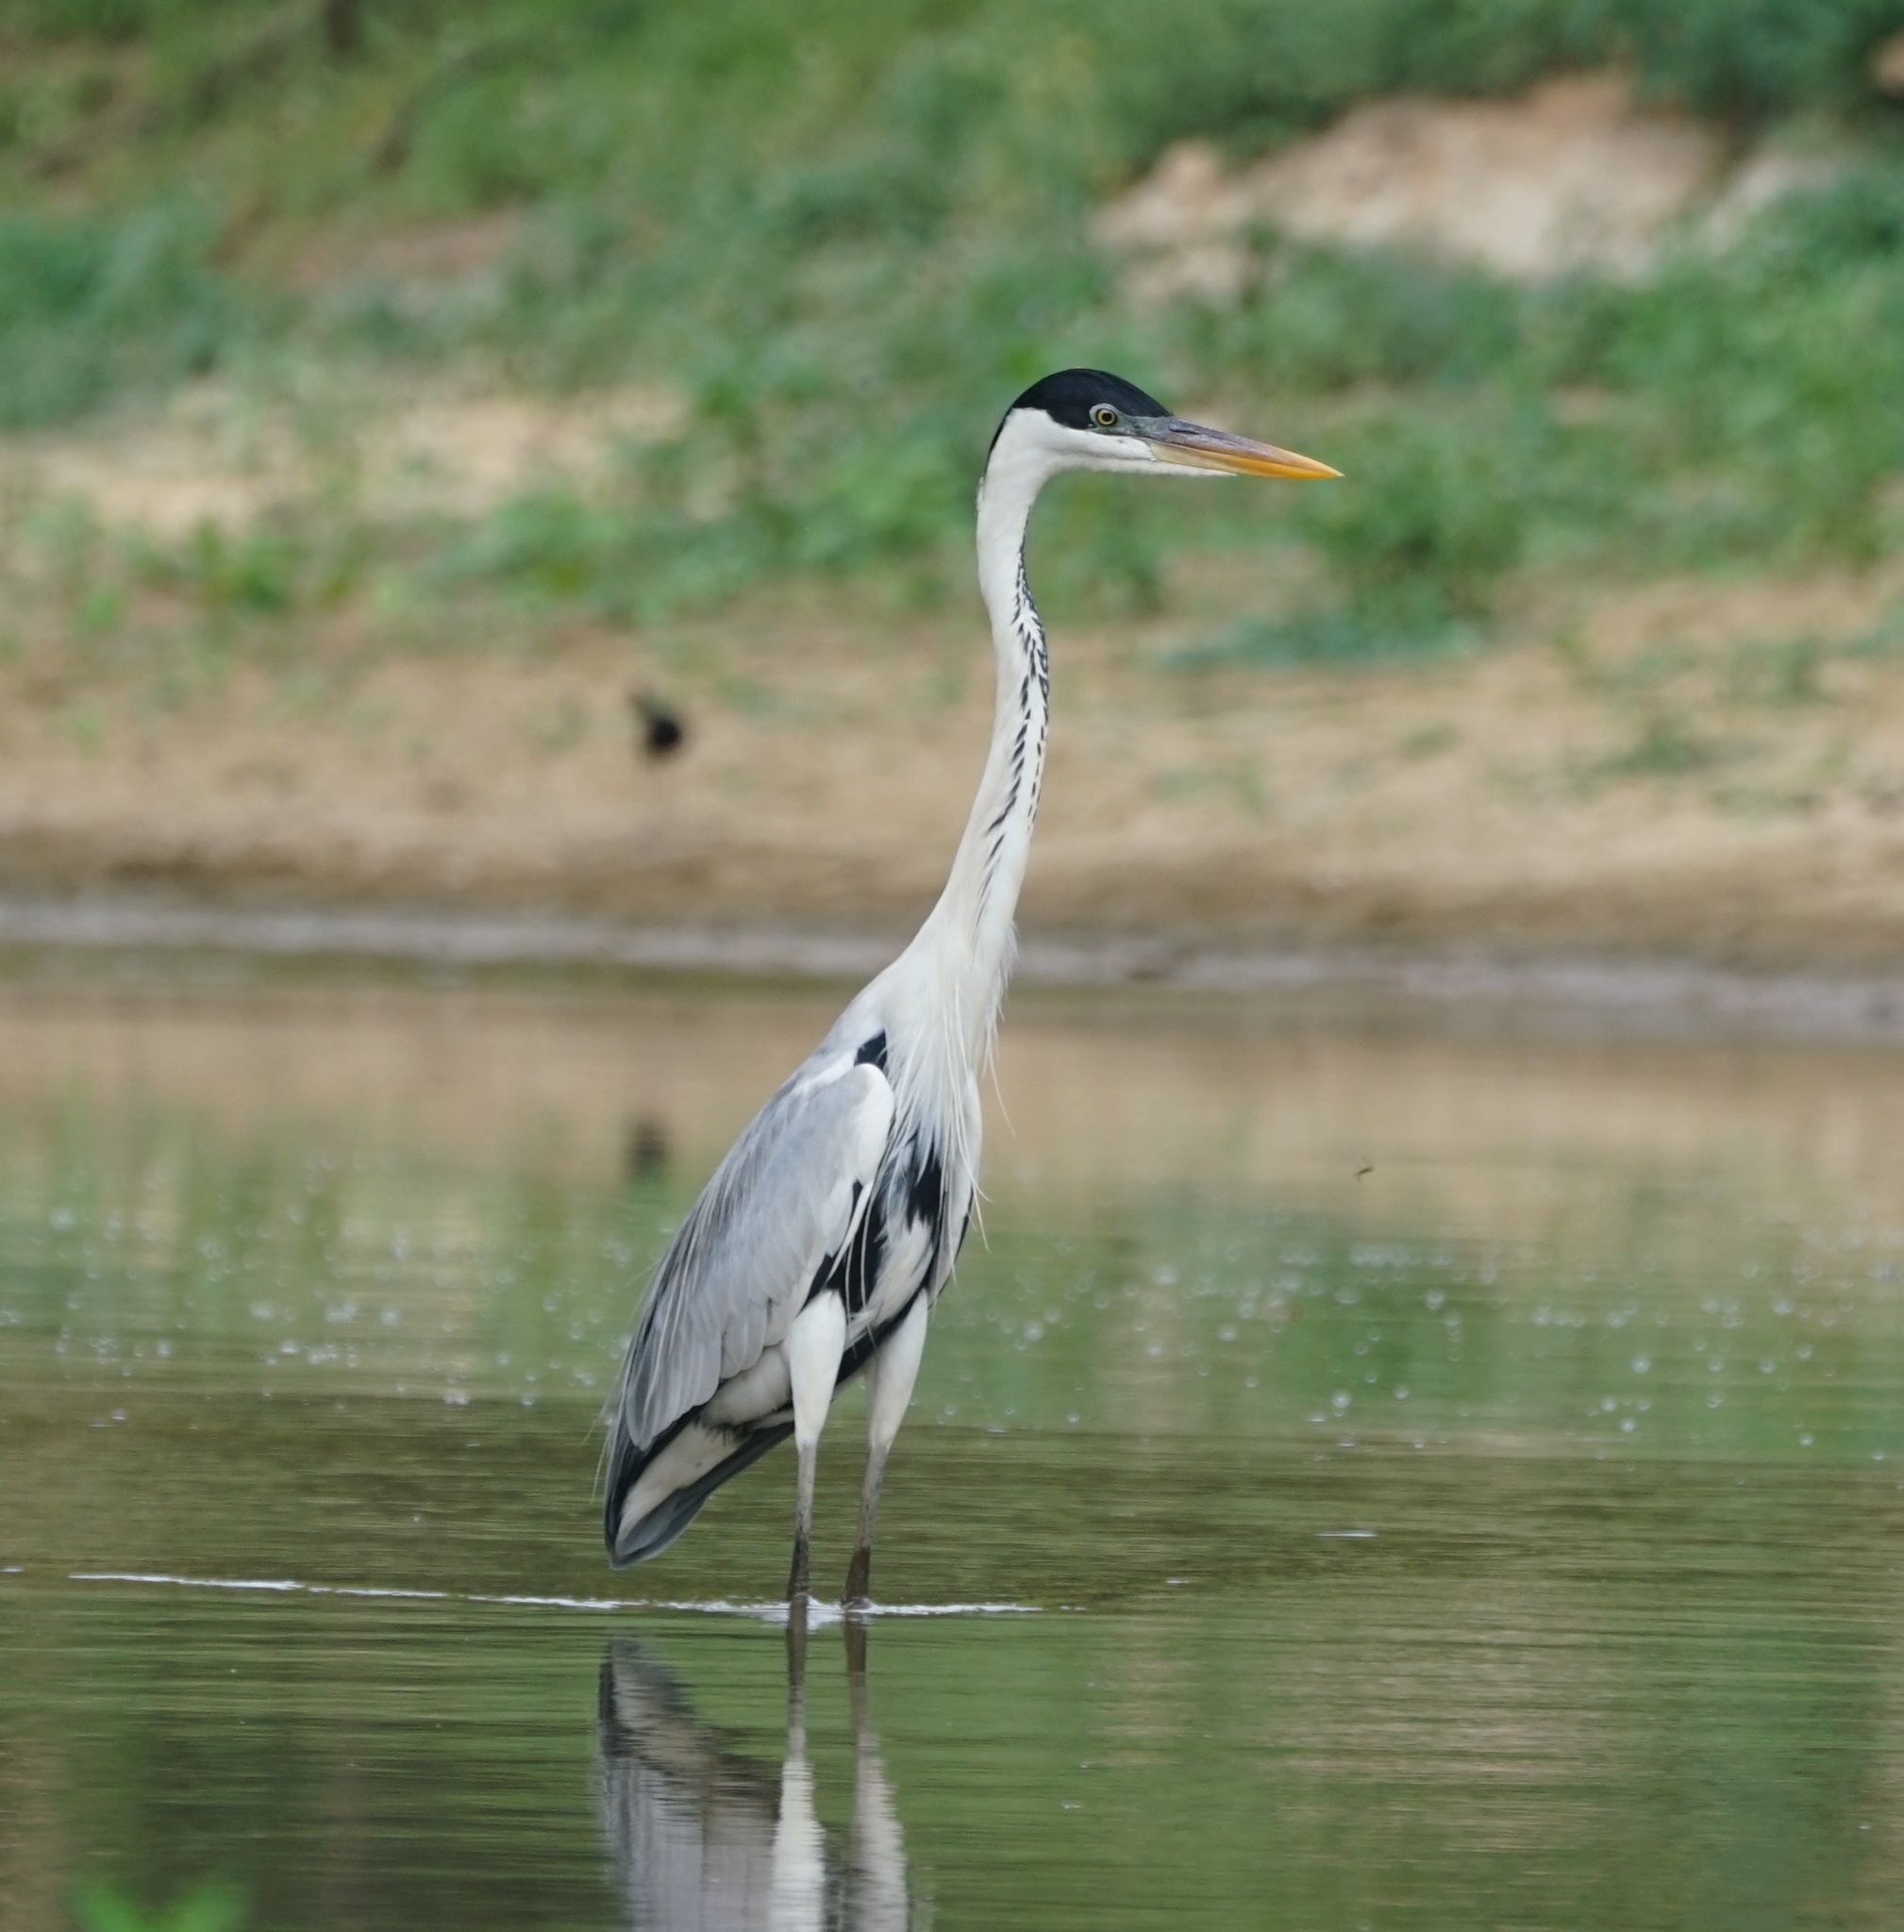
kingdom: Animalia
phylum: Chordata
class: Aves
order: Pelecaniformes
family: Ardeidae
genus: Ardea
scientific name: Ardea cocoi
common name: Cocoi heron
